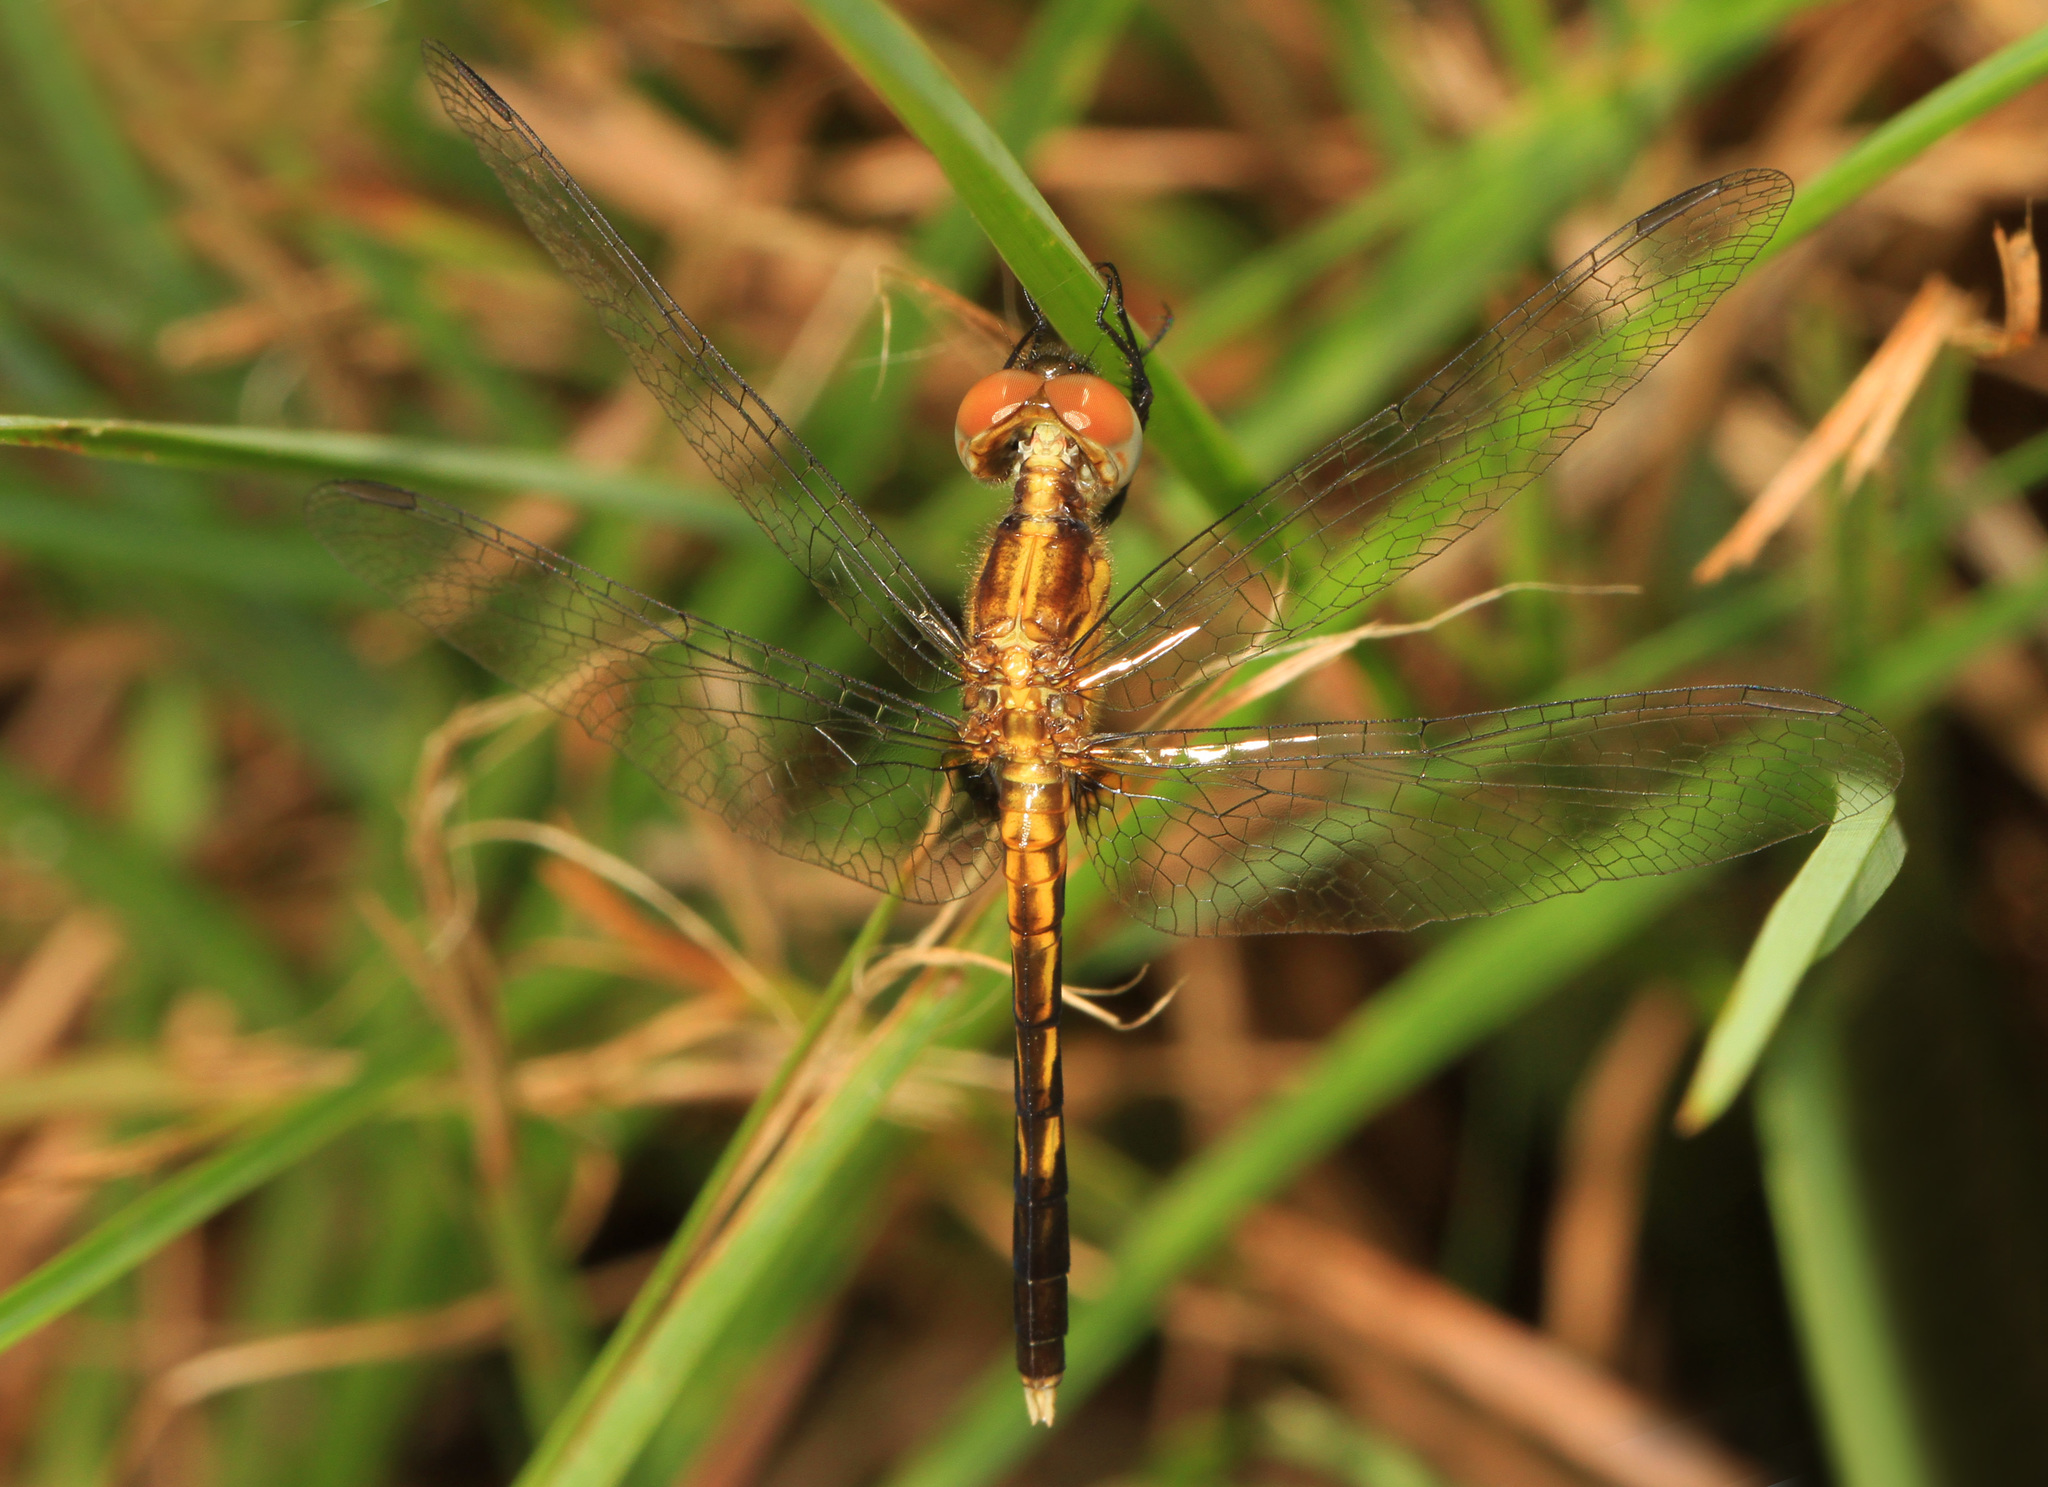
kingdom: Animalia
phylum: Arthropoda
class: Insecta
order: Odonata
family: Libellulidae
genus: Erythrodiplax
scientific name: Erythrodiplax minuscula
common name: Little blue dragonlet
